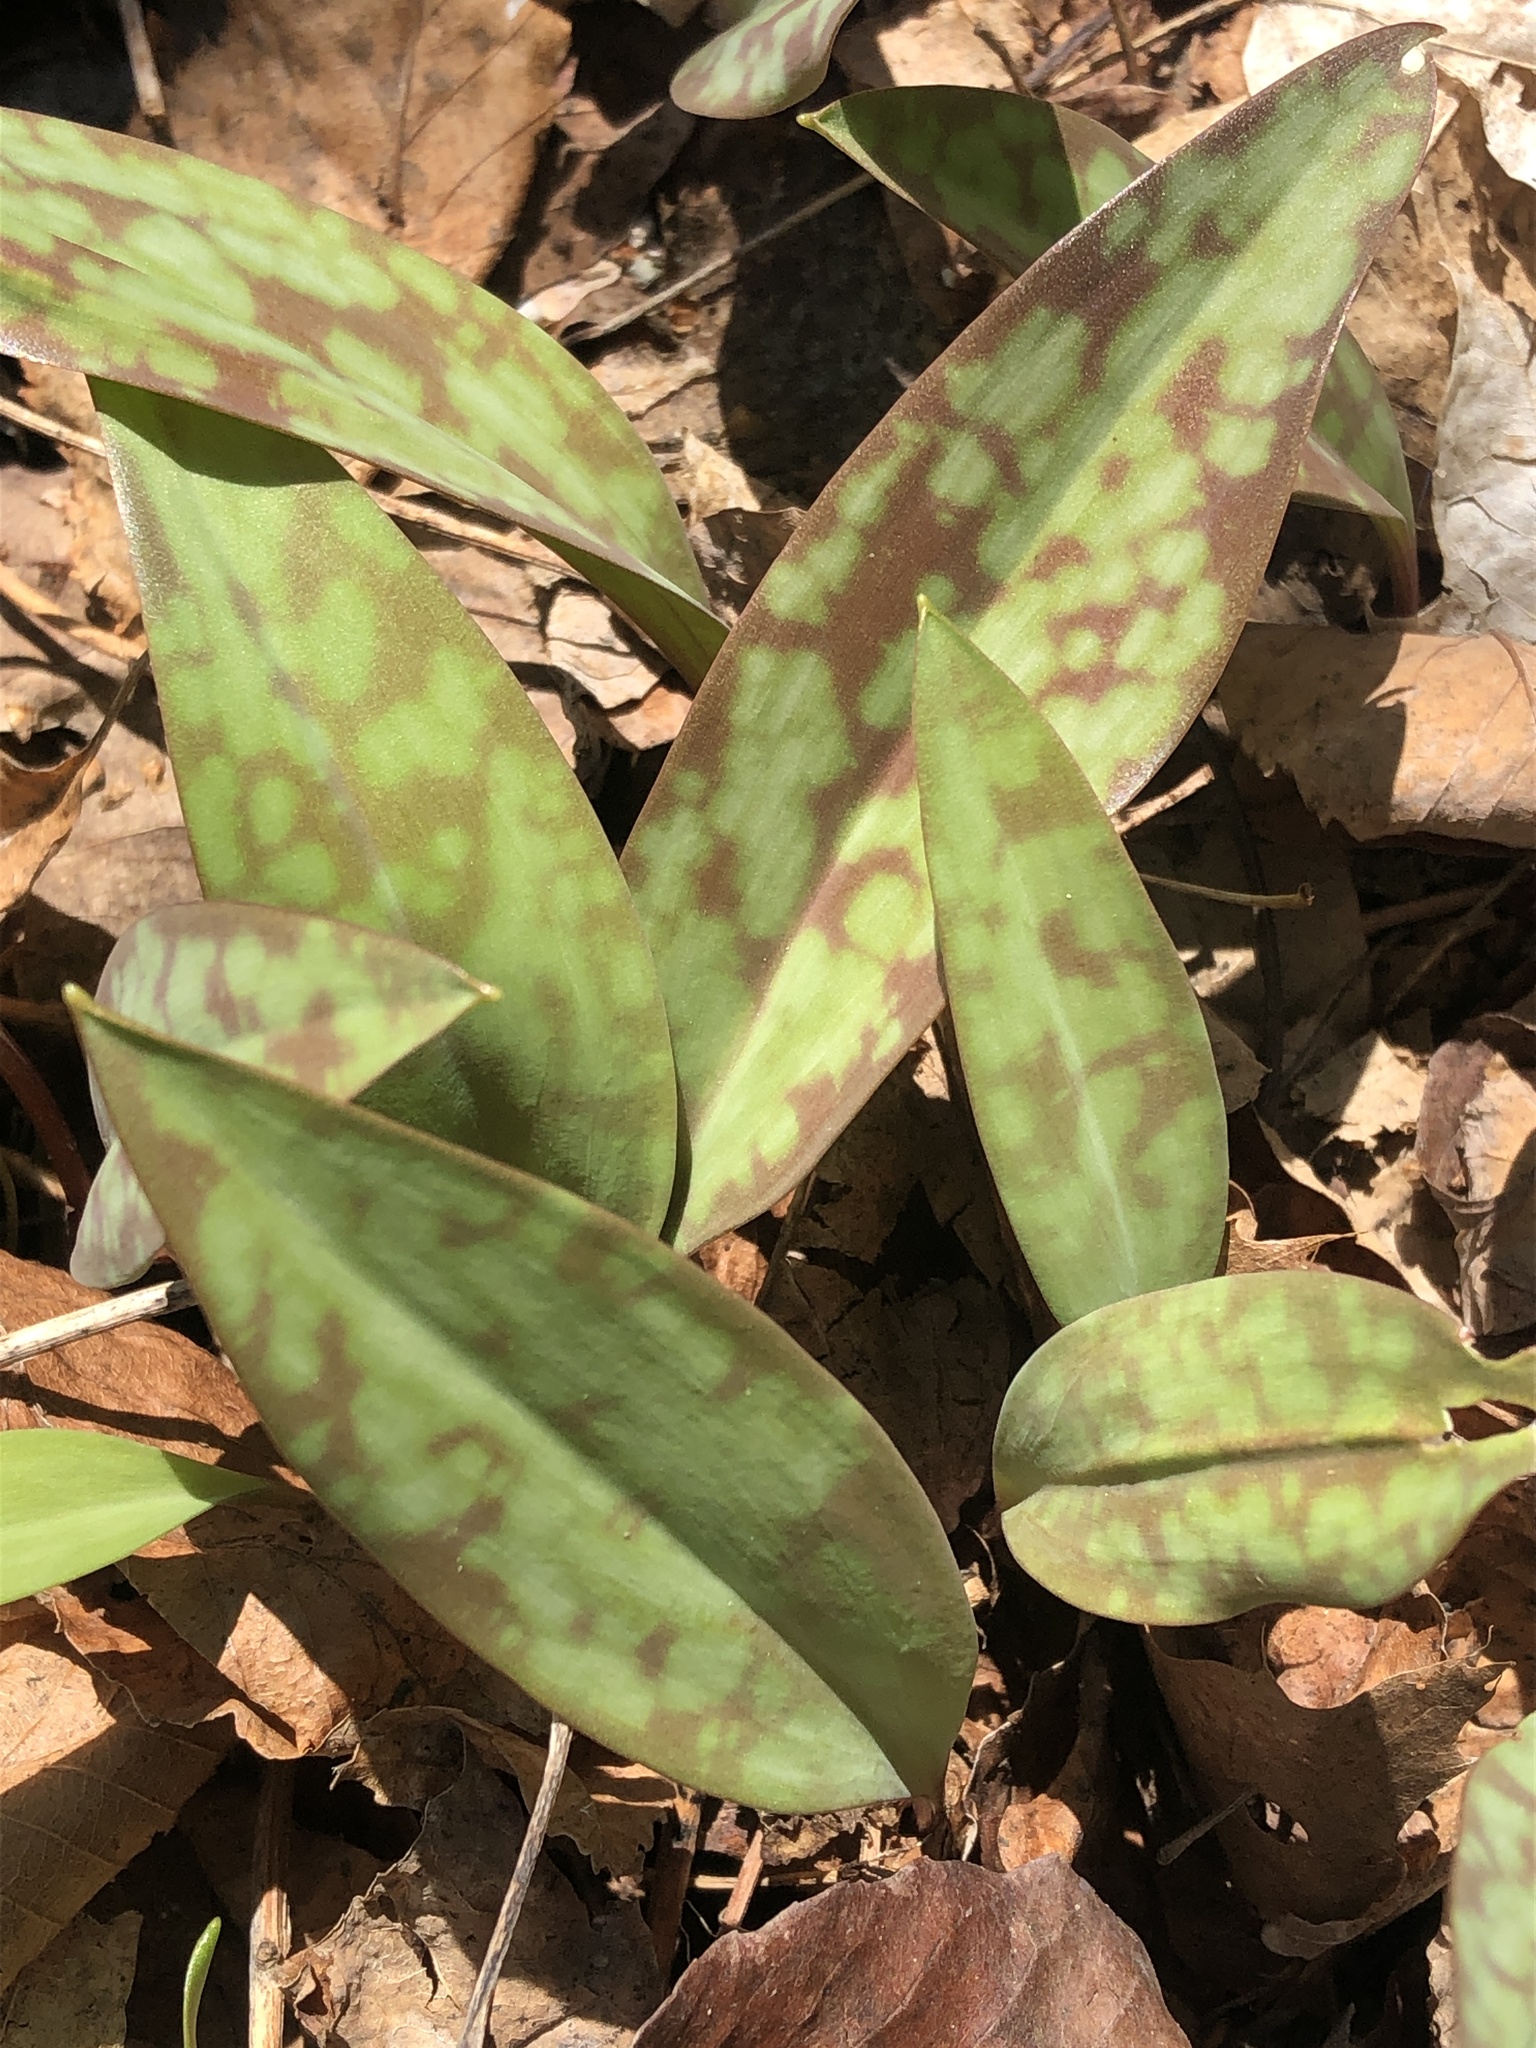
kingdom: Plantae
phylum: Tracheophyta
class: Liliopsida
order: Liliales
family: Liliaceae
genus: Erythronium
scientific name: Erythronium americanum
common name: Yellow adder's-tongue
